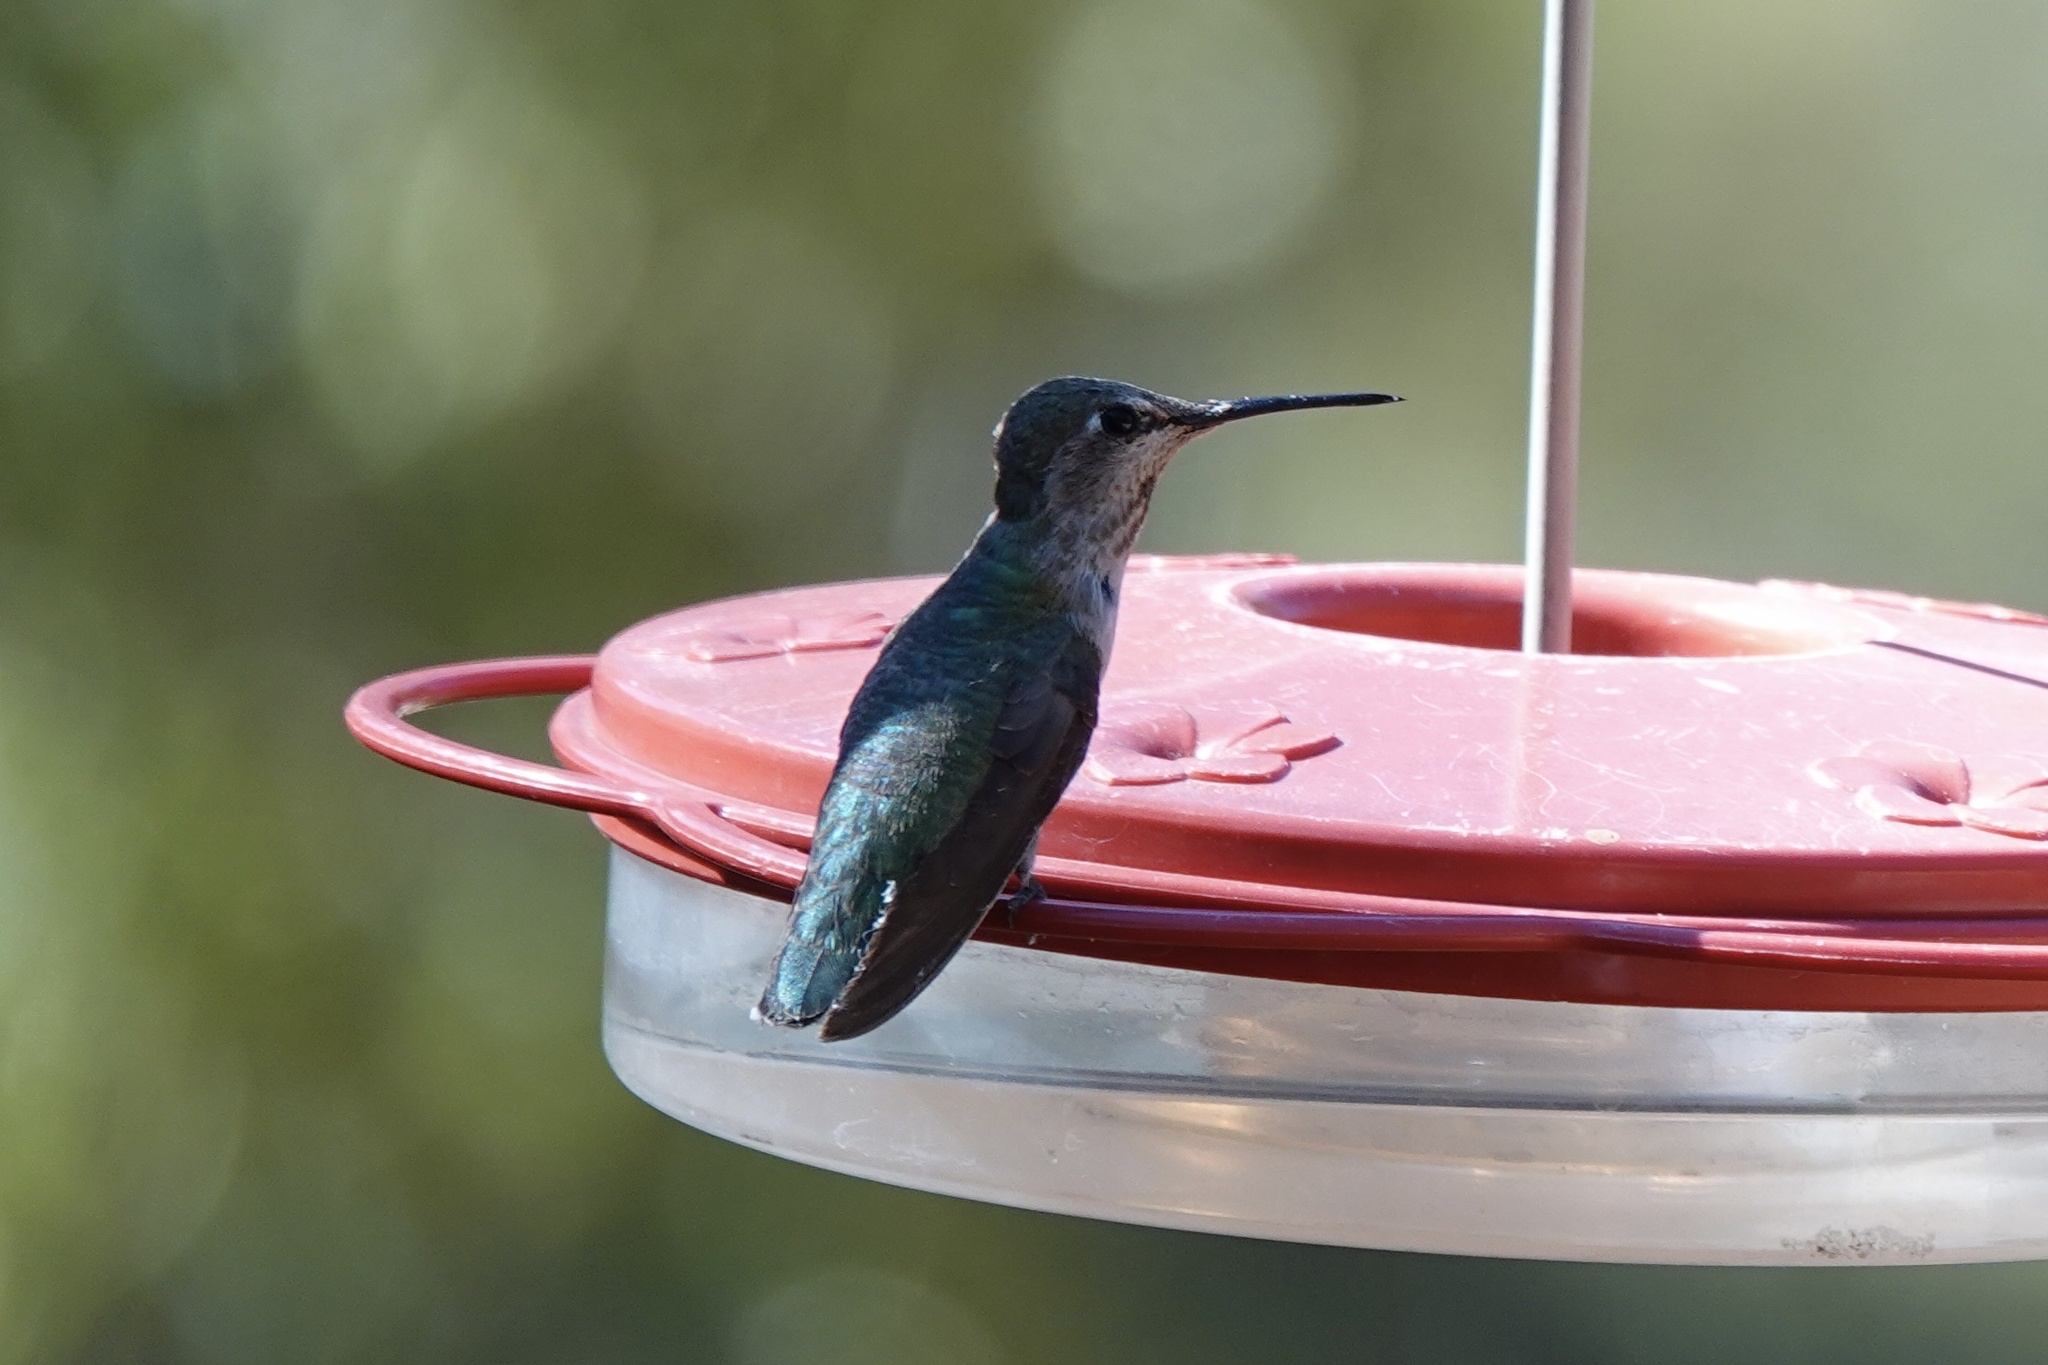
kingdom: Animalia
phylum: Chordata
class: Aves
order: Apodiformes
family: Trochilidae
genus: Selasphorus
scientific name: Selasphorus rufus
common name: Rufous hummingbird
